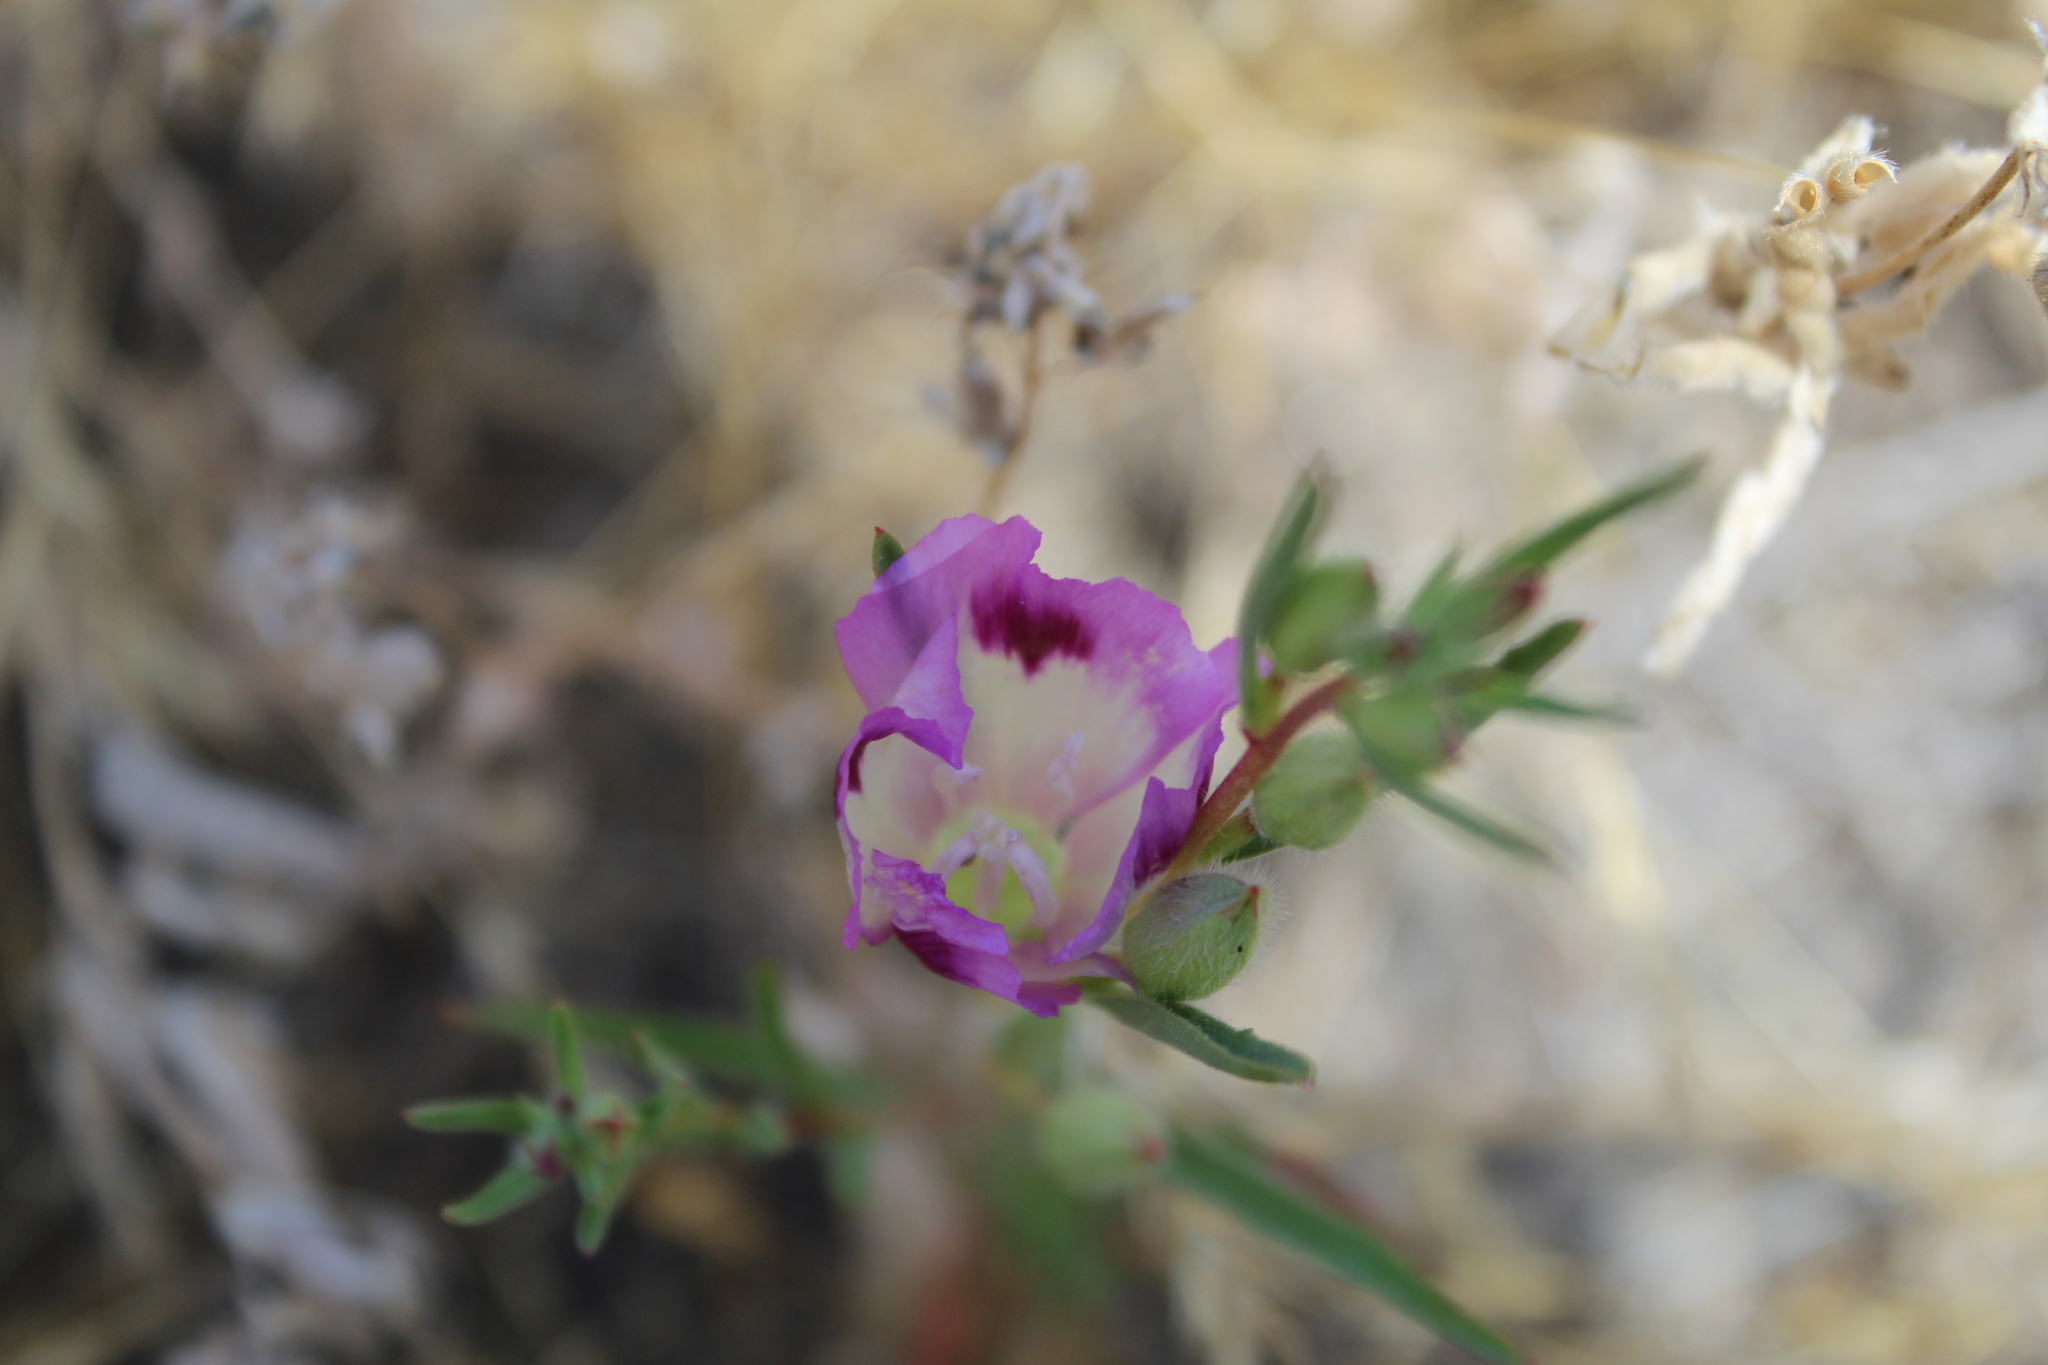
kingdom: Plantae
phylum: Tracheophyta
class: Magnoliopsida
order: Myrtales
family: Onagraceae
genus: Clarkia
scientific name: Clarkia williamsonii
